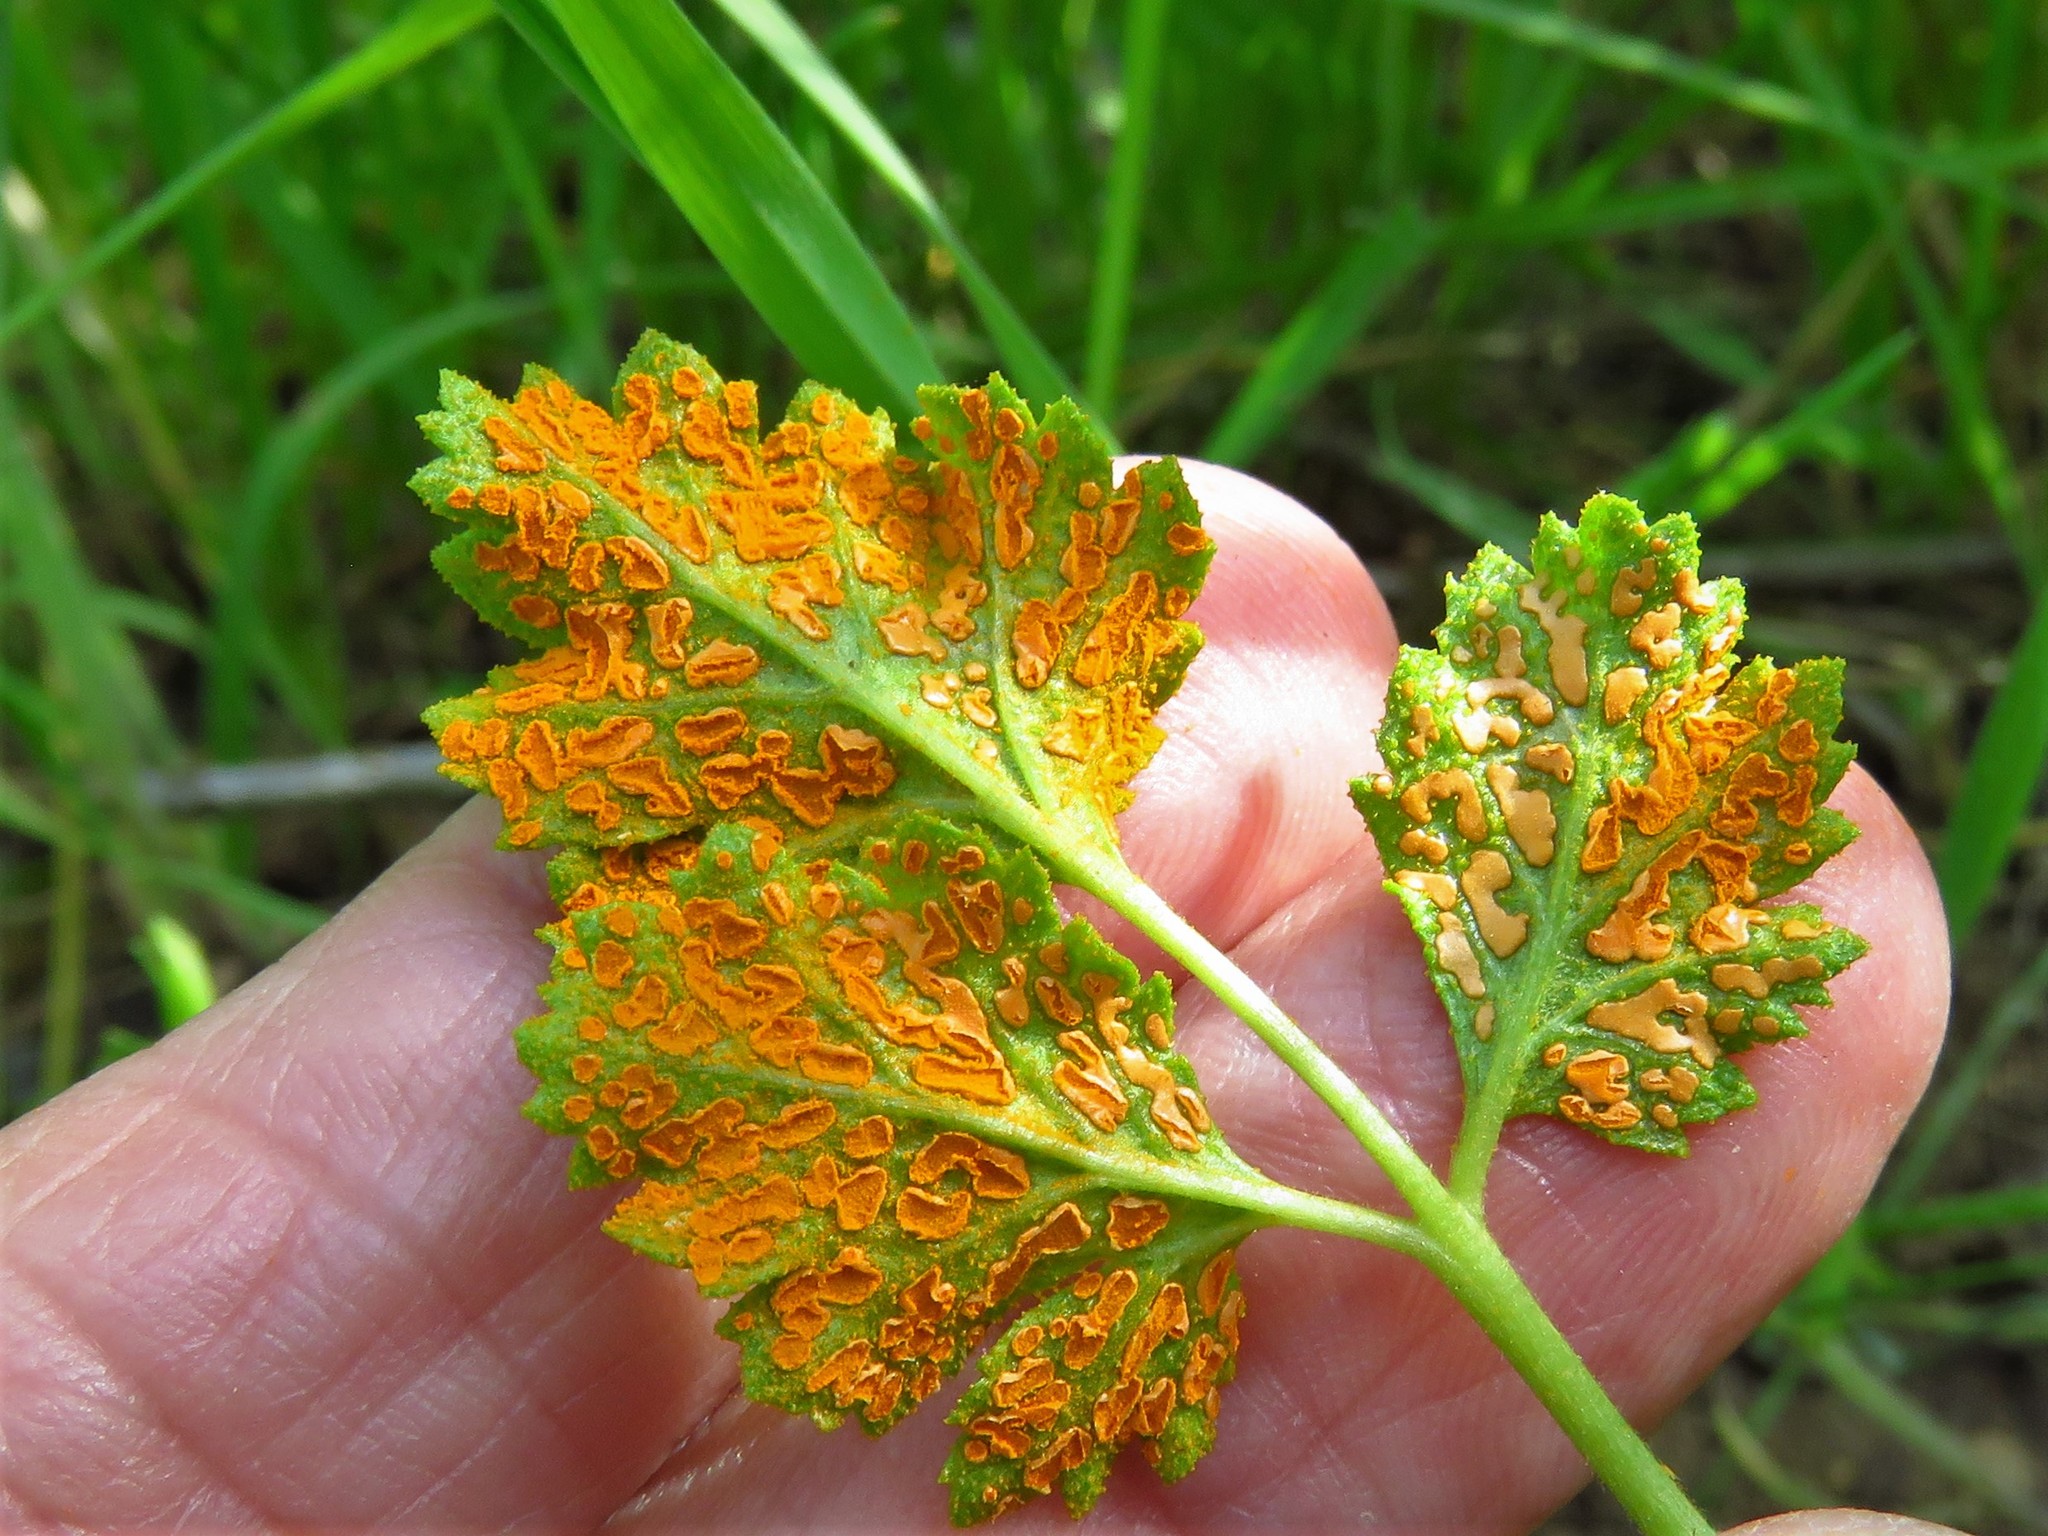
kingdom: Fungi
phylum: Basidiomycota
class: Pucciniomycetes
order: Pucciniales
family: Phragmidiaceae
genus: Gymnoconia
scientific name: Gymnoconia nitens
